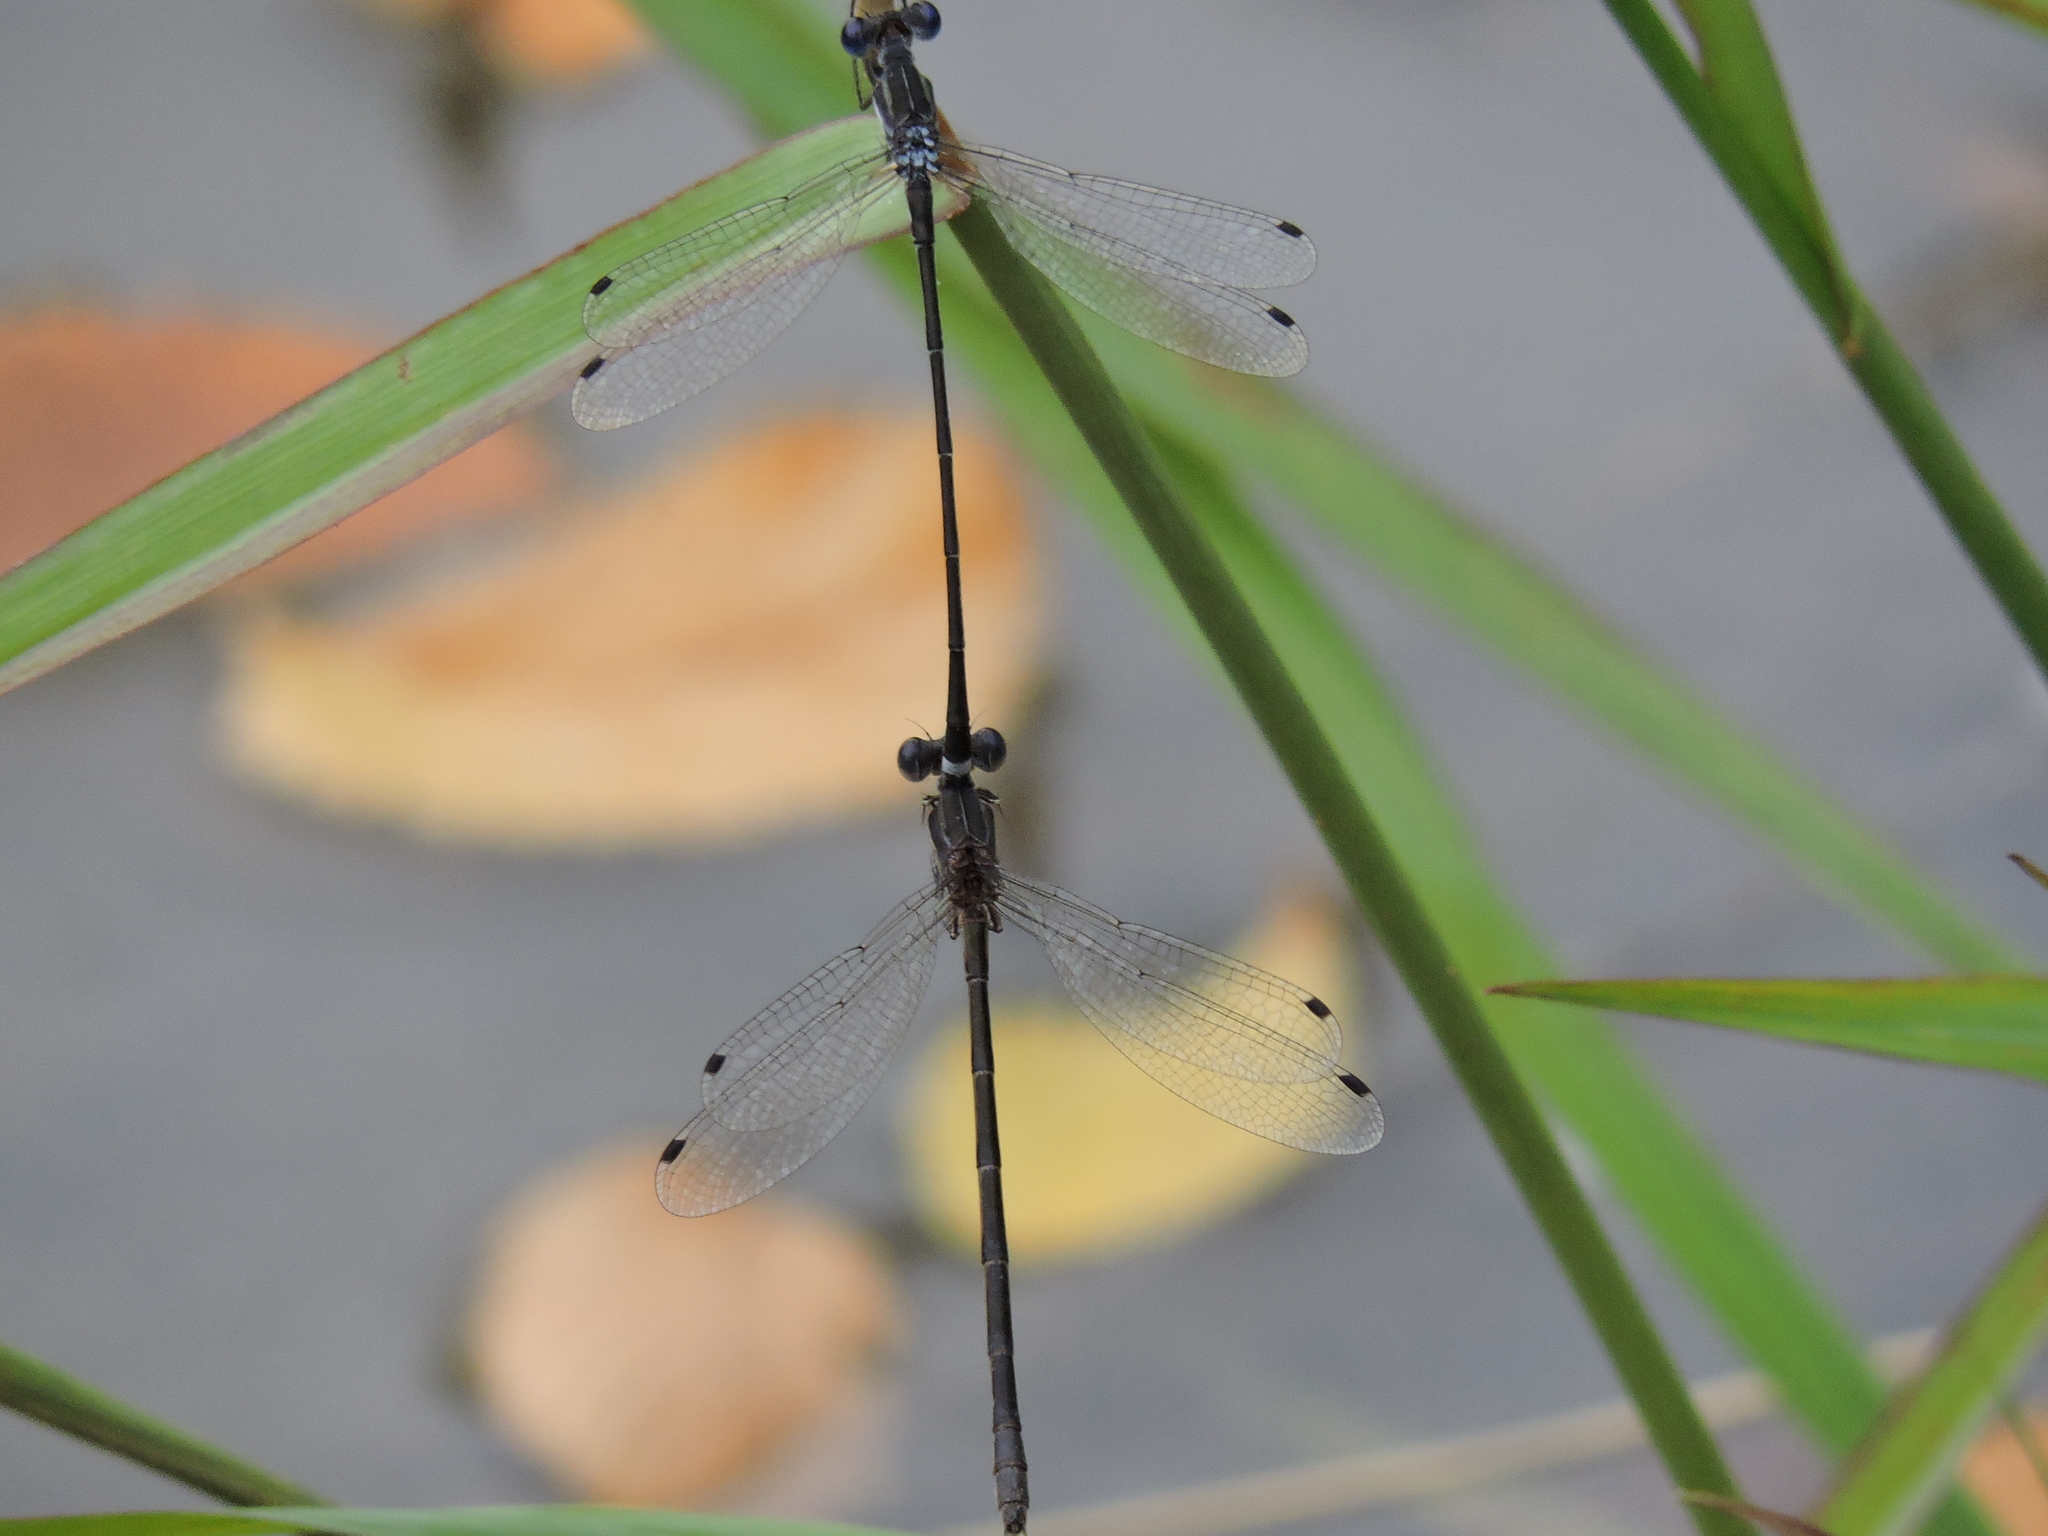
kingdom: Animalia
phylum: Arthropoda
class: Insecta
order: Odonata
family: Lestidae
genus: Lestes
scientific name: Lestes australis
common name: Southern spreadwing
